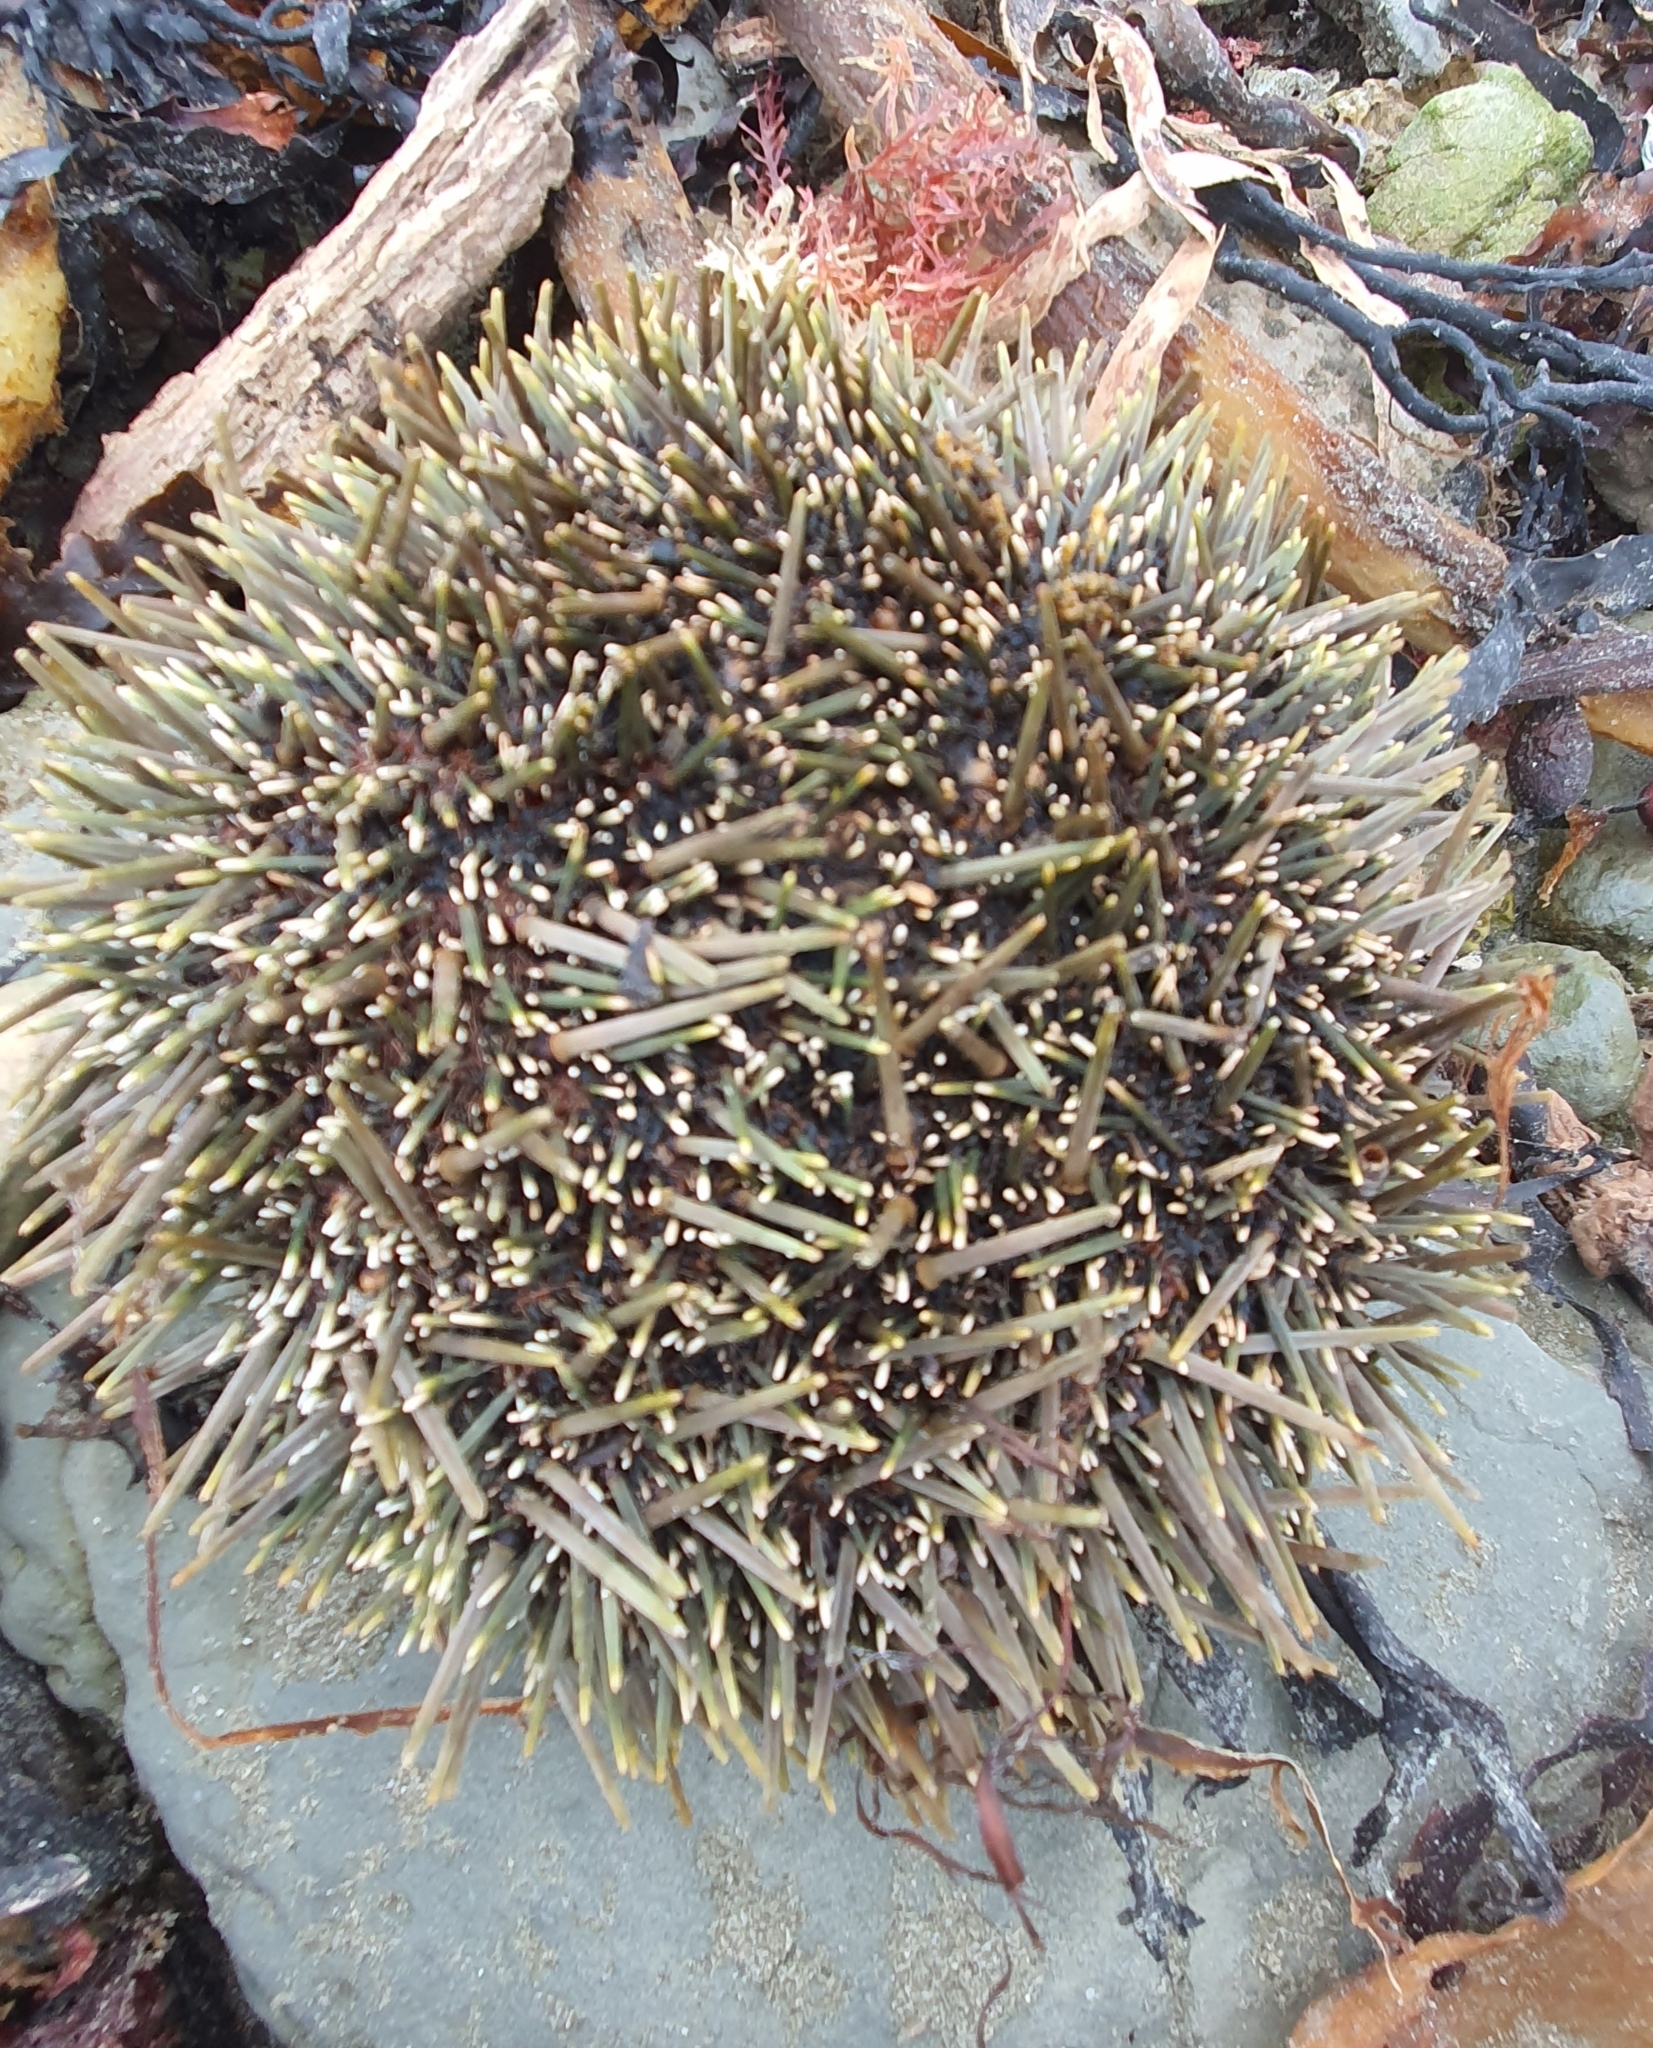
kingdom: Animalia
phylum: Echinodermata
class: Echinoidea
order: Camarodonta
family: Echinometridae
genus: Evechinus
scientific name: Evechinus chloroticus
